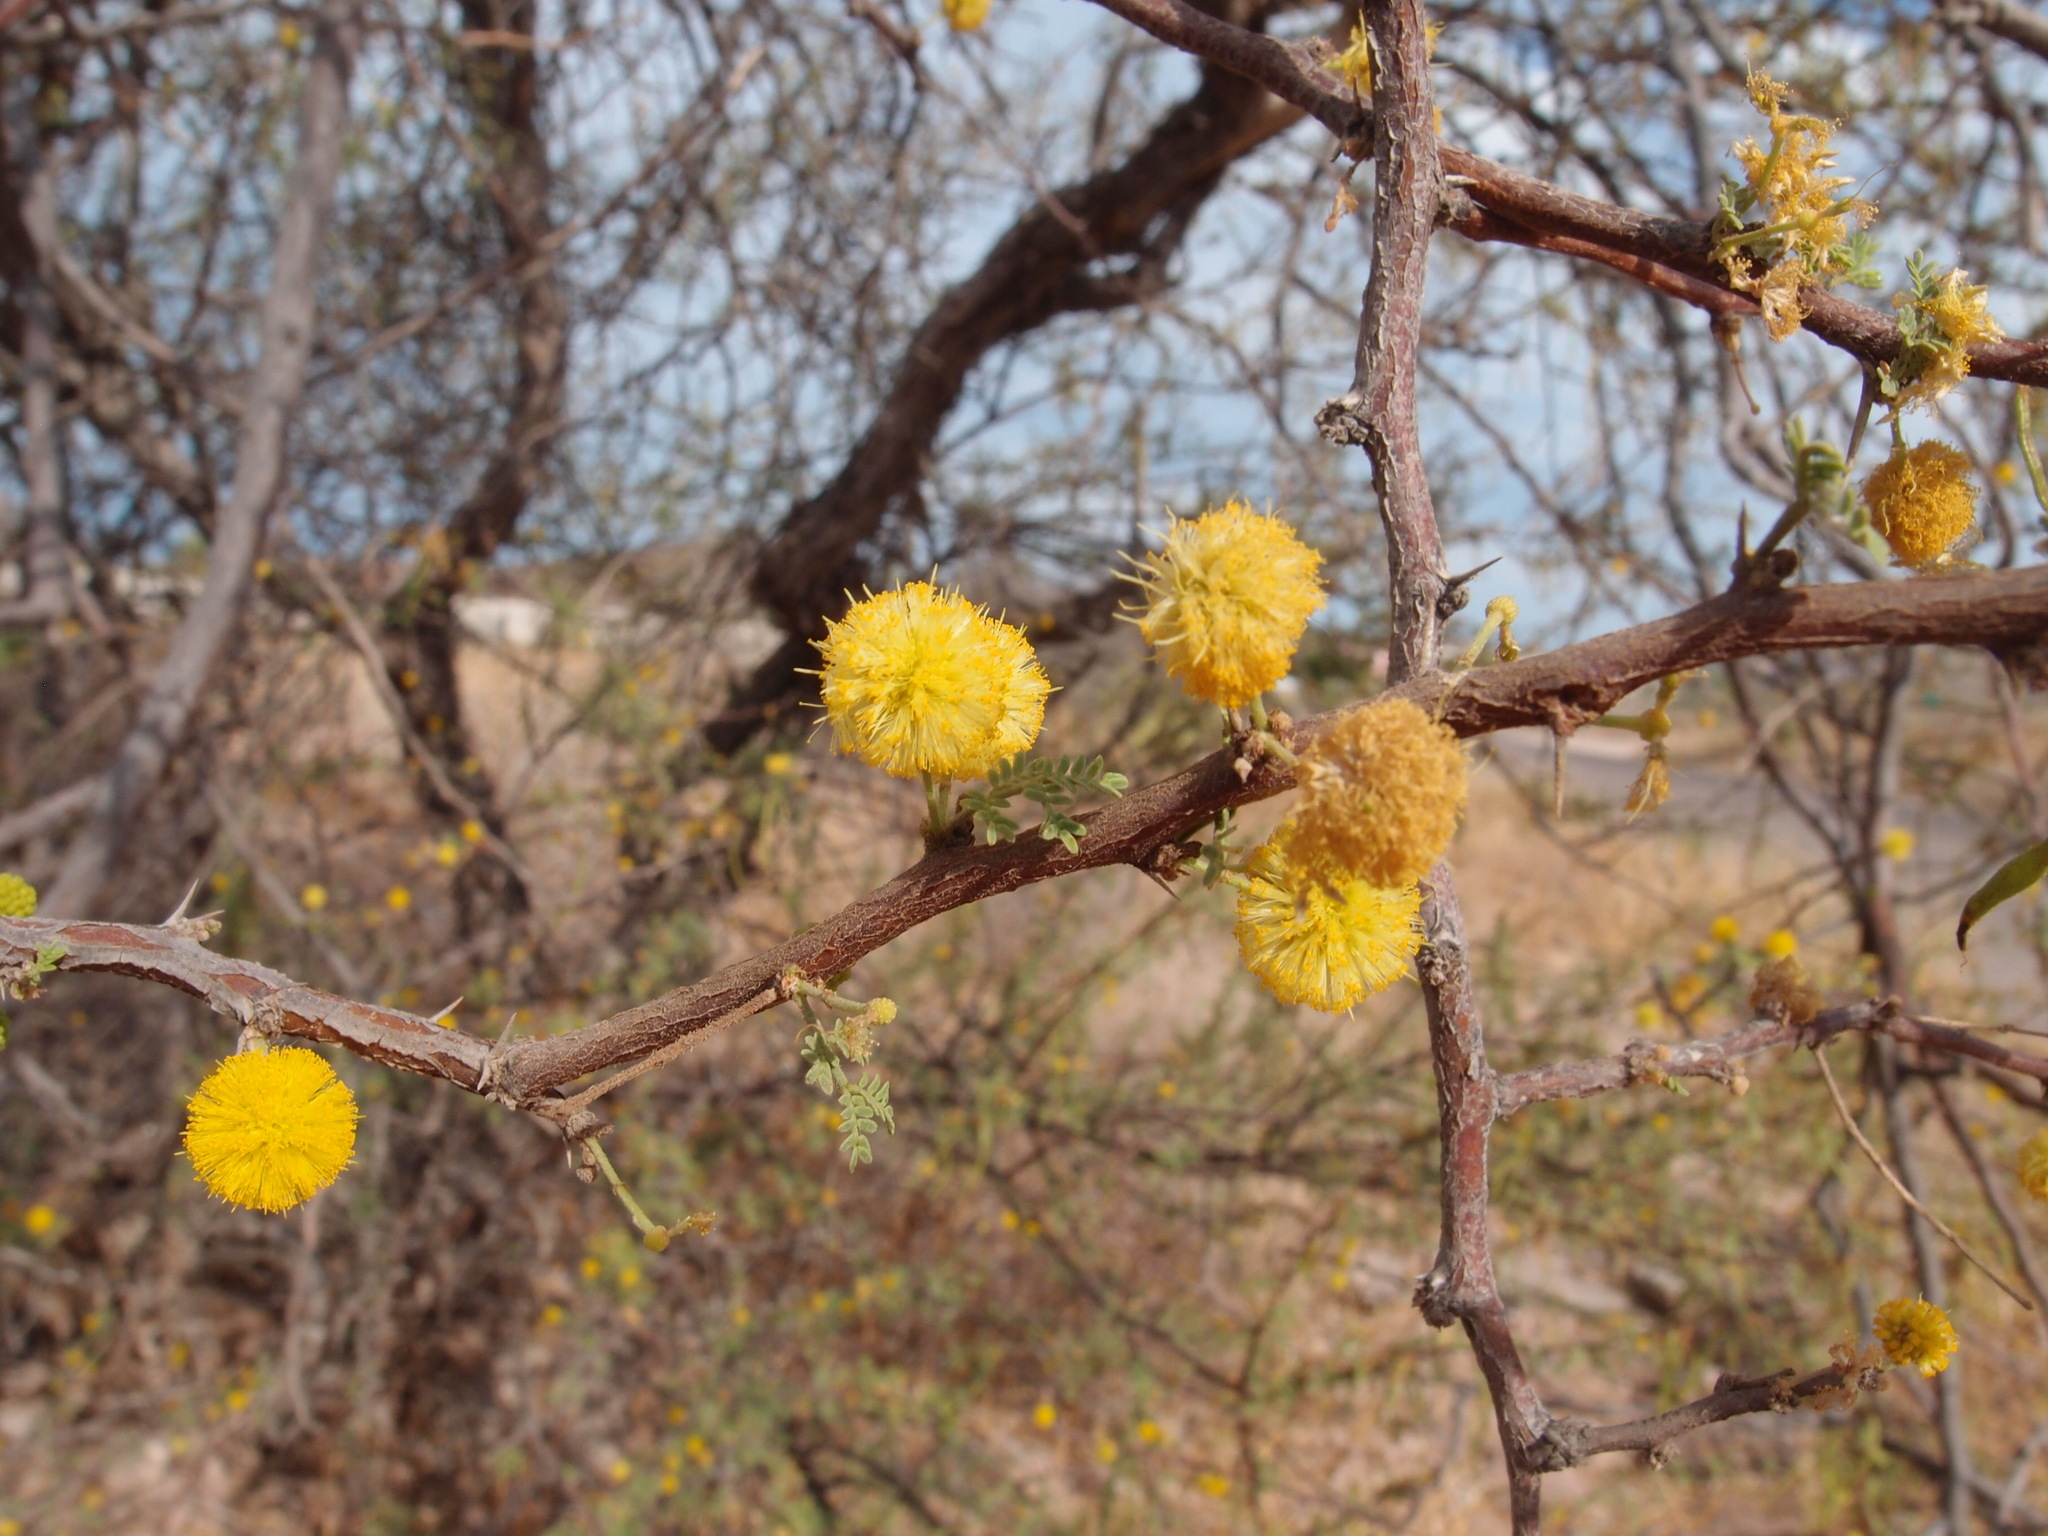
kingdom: Plantae
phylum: Tracheophyta
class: Magnoliopsida
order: Fabales
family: Fabaceae
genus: Vachellia
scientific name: Vachellia constricta
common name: Mescat acacia
